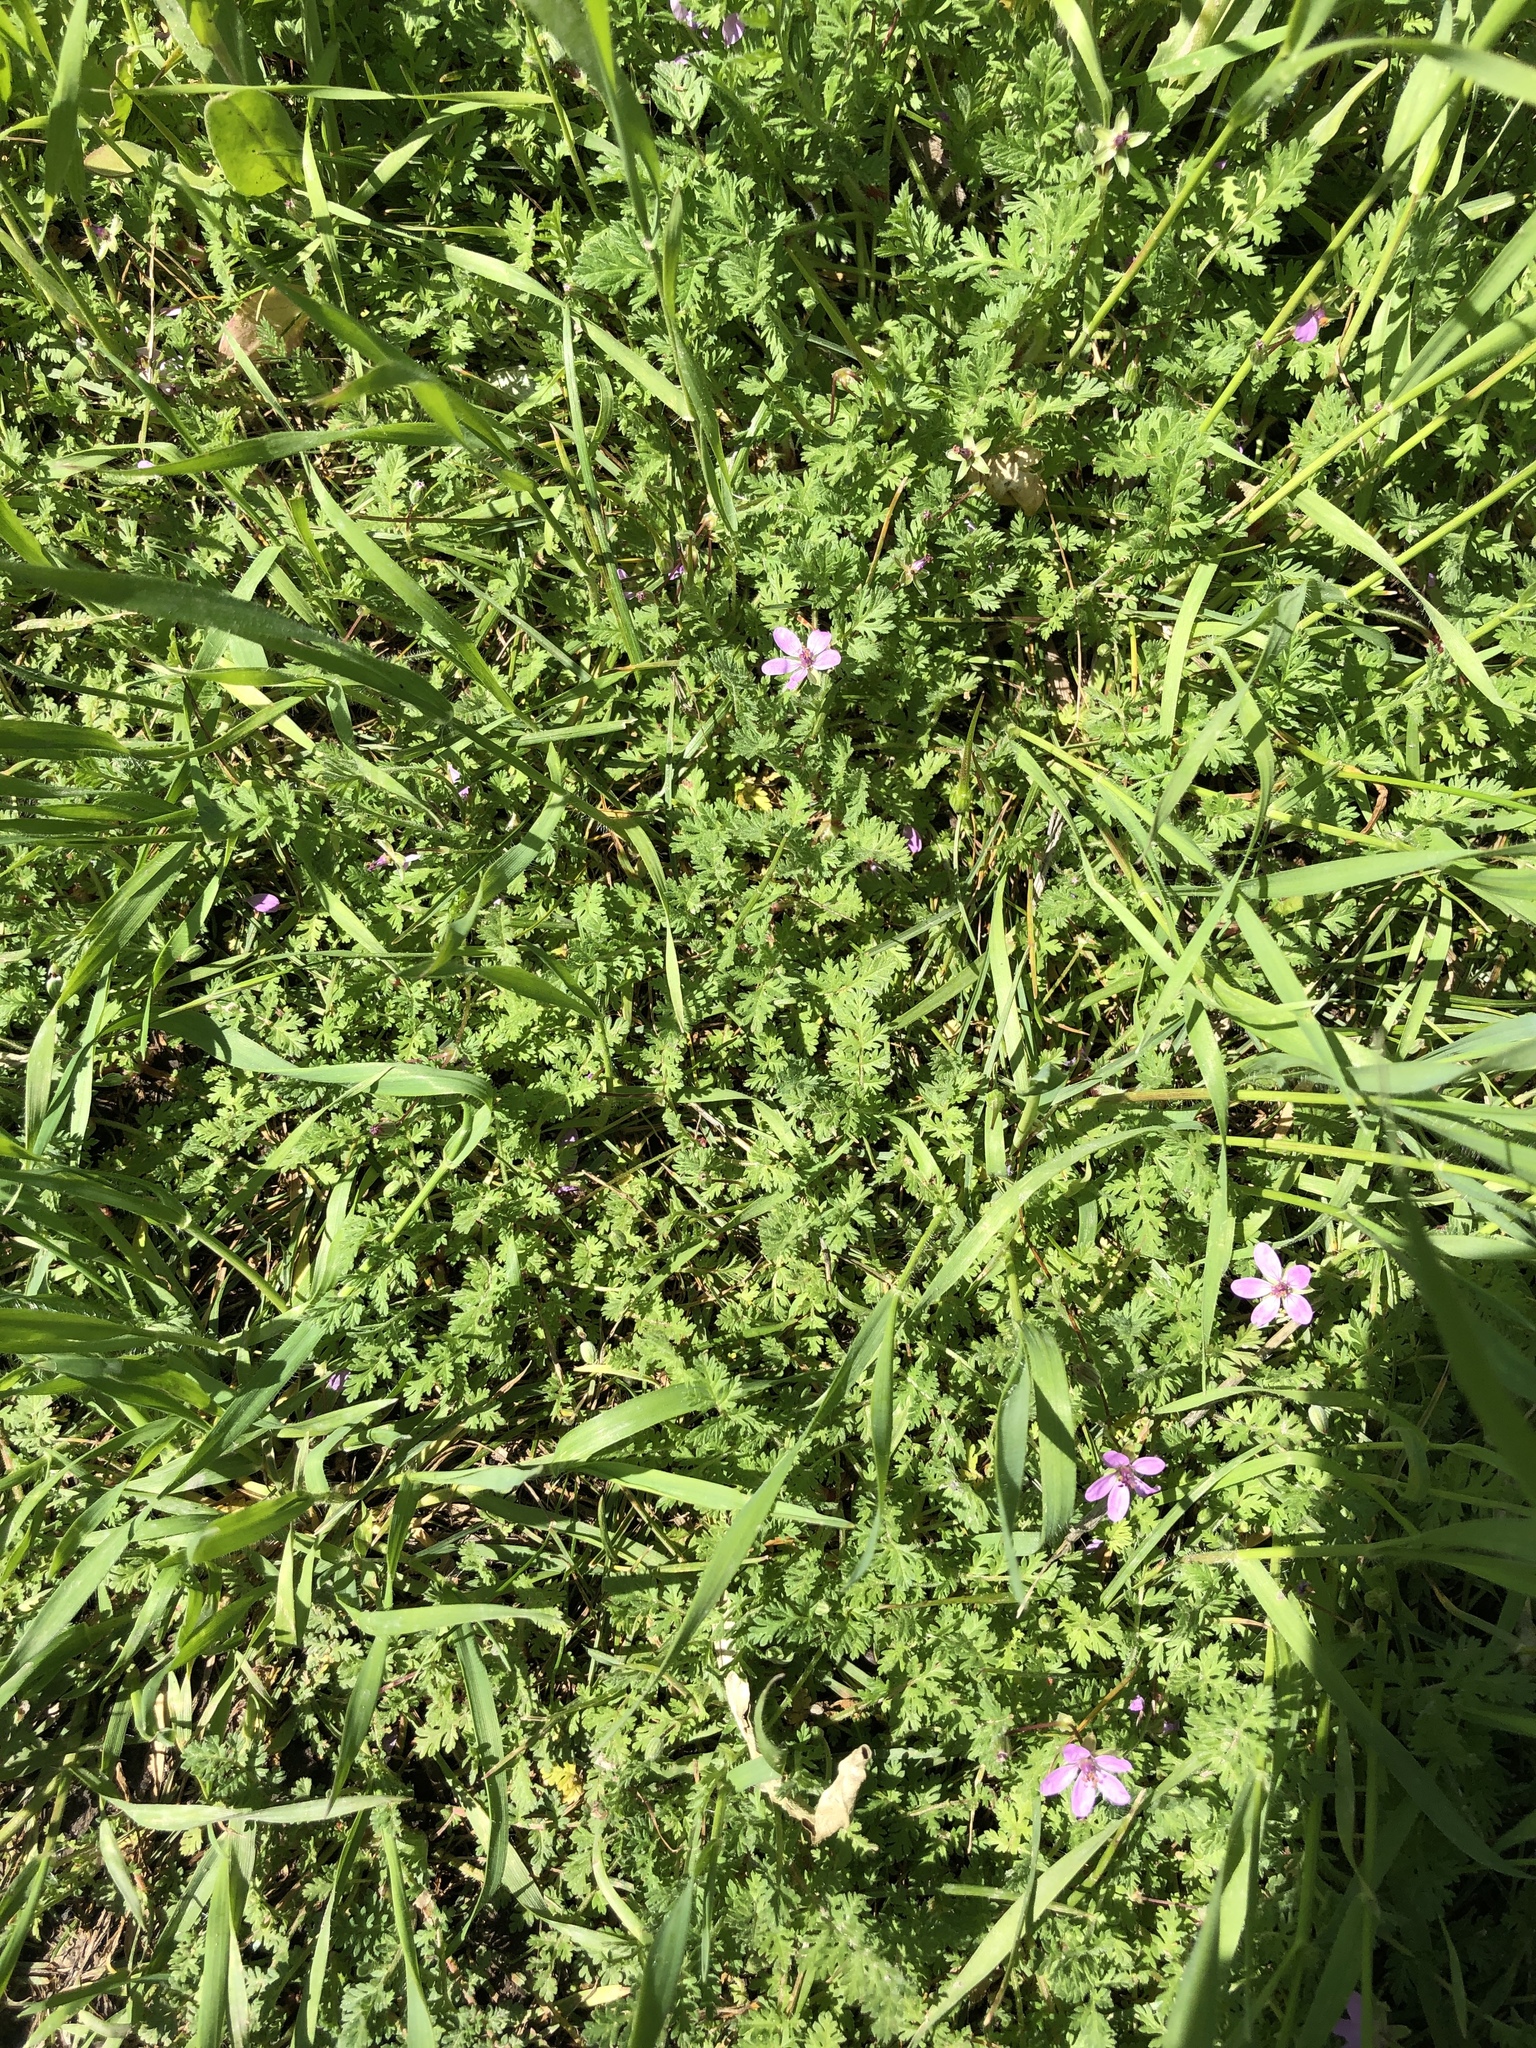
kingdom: Plantae
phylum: Tracheophyta
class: Magnoliopsida
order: Geraniales
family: Geraniaceae
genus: Erodium
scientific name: Erodium cicutarium
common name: Common stork's-bill
